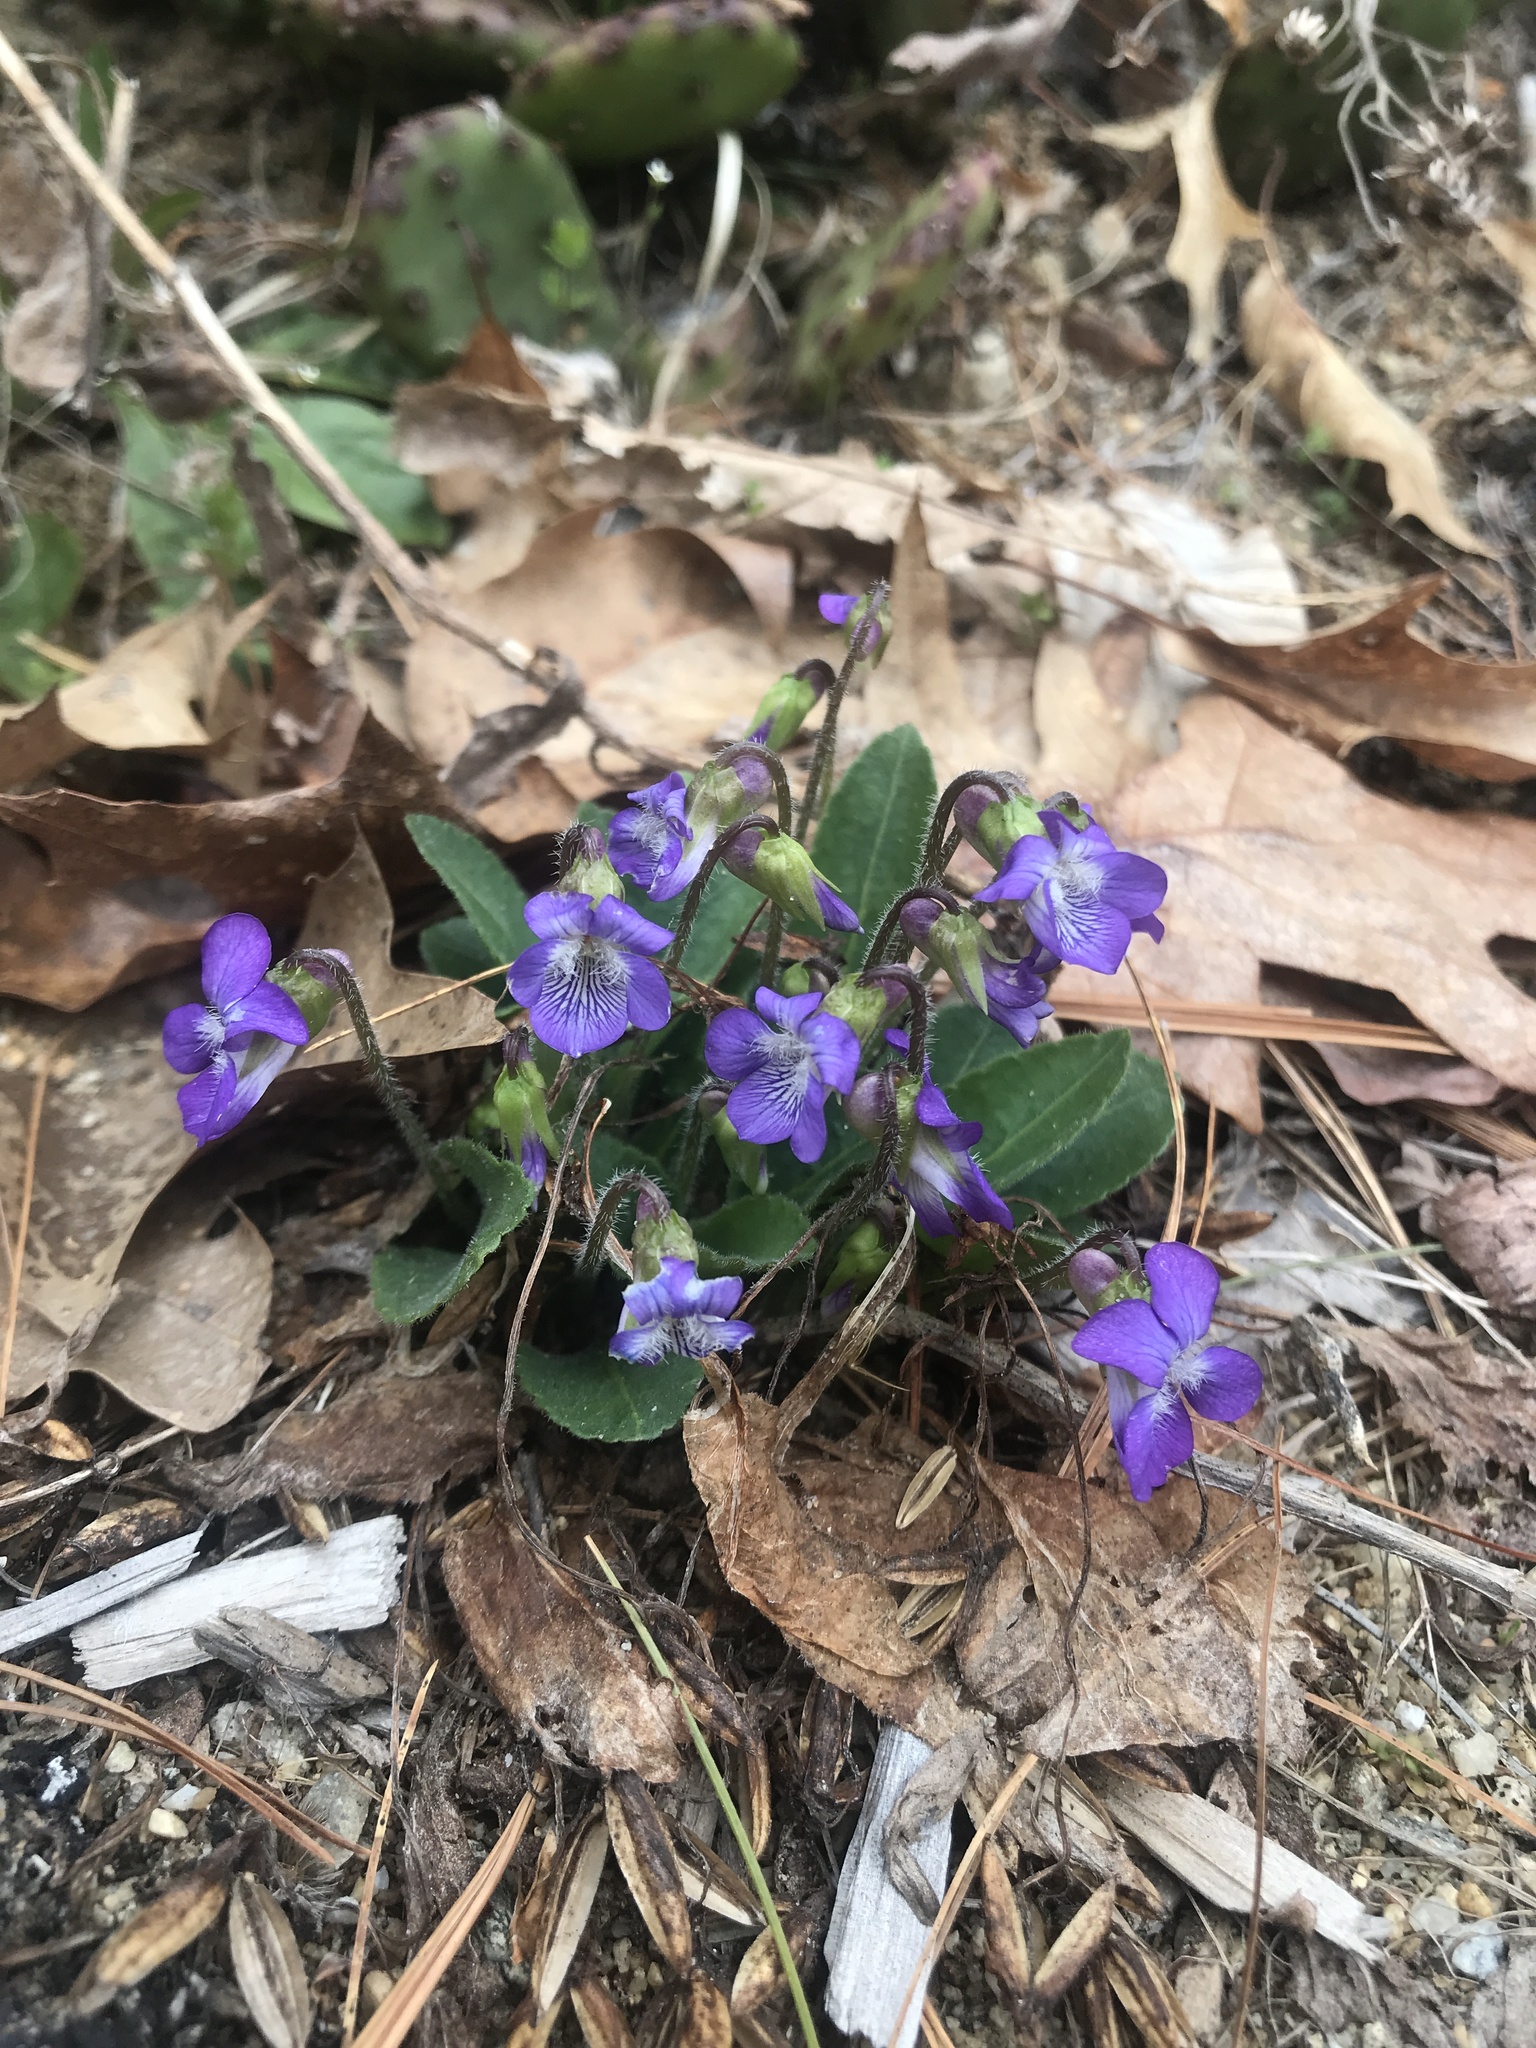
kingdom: Plantae
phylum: Tracheophyta
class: Magnoliopsida
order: Malpighiales
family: Violaceae
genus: Viola
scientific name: Viola sagittata
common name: Arrowhead violet
